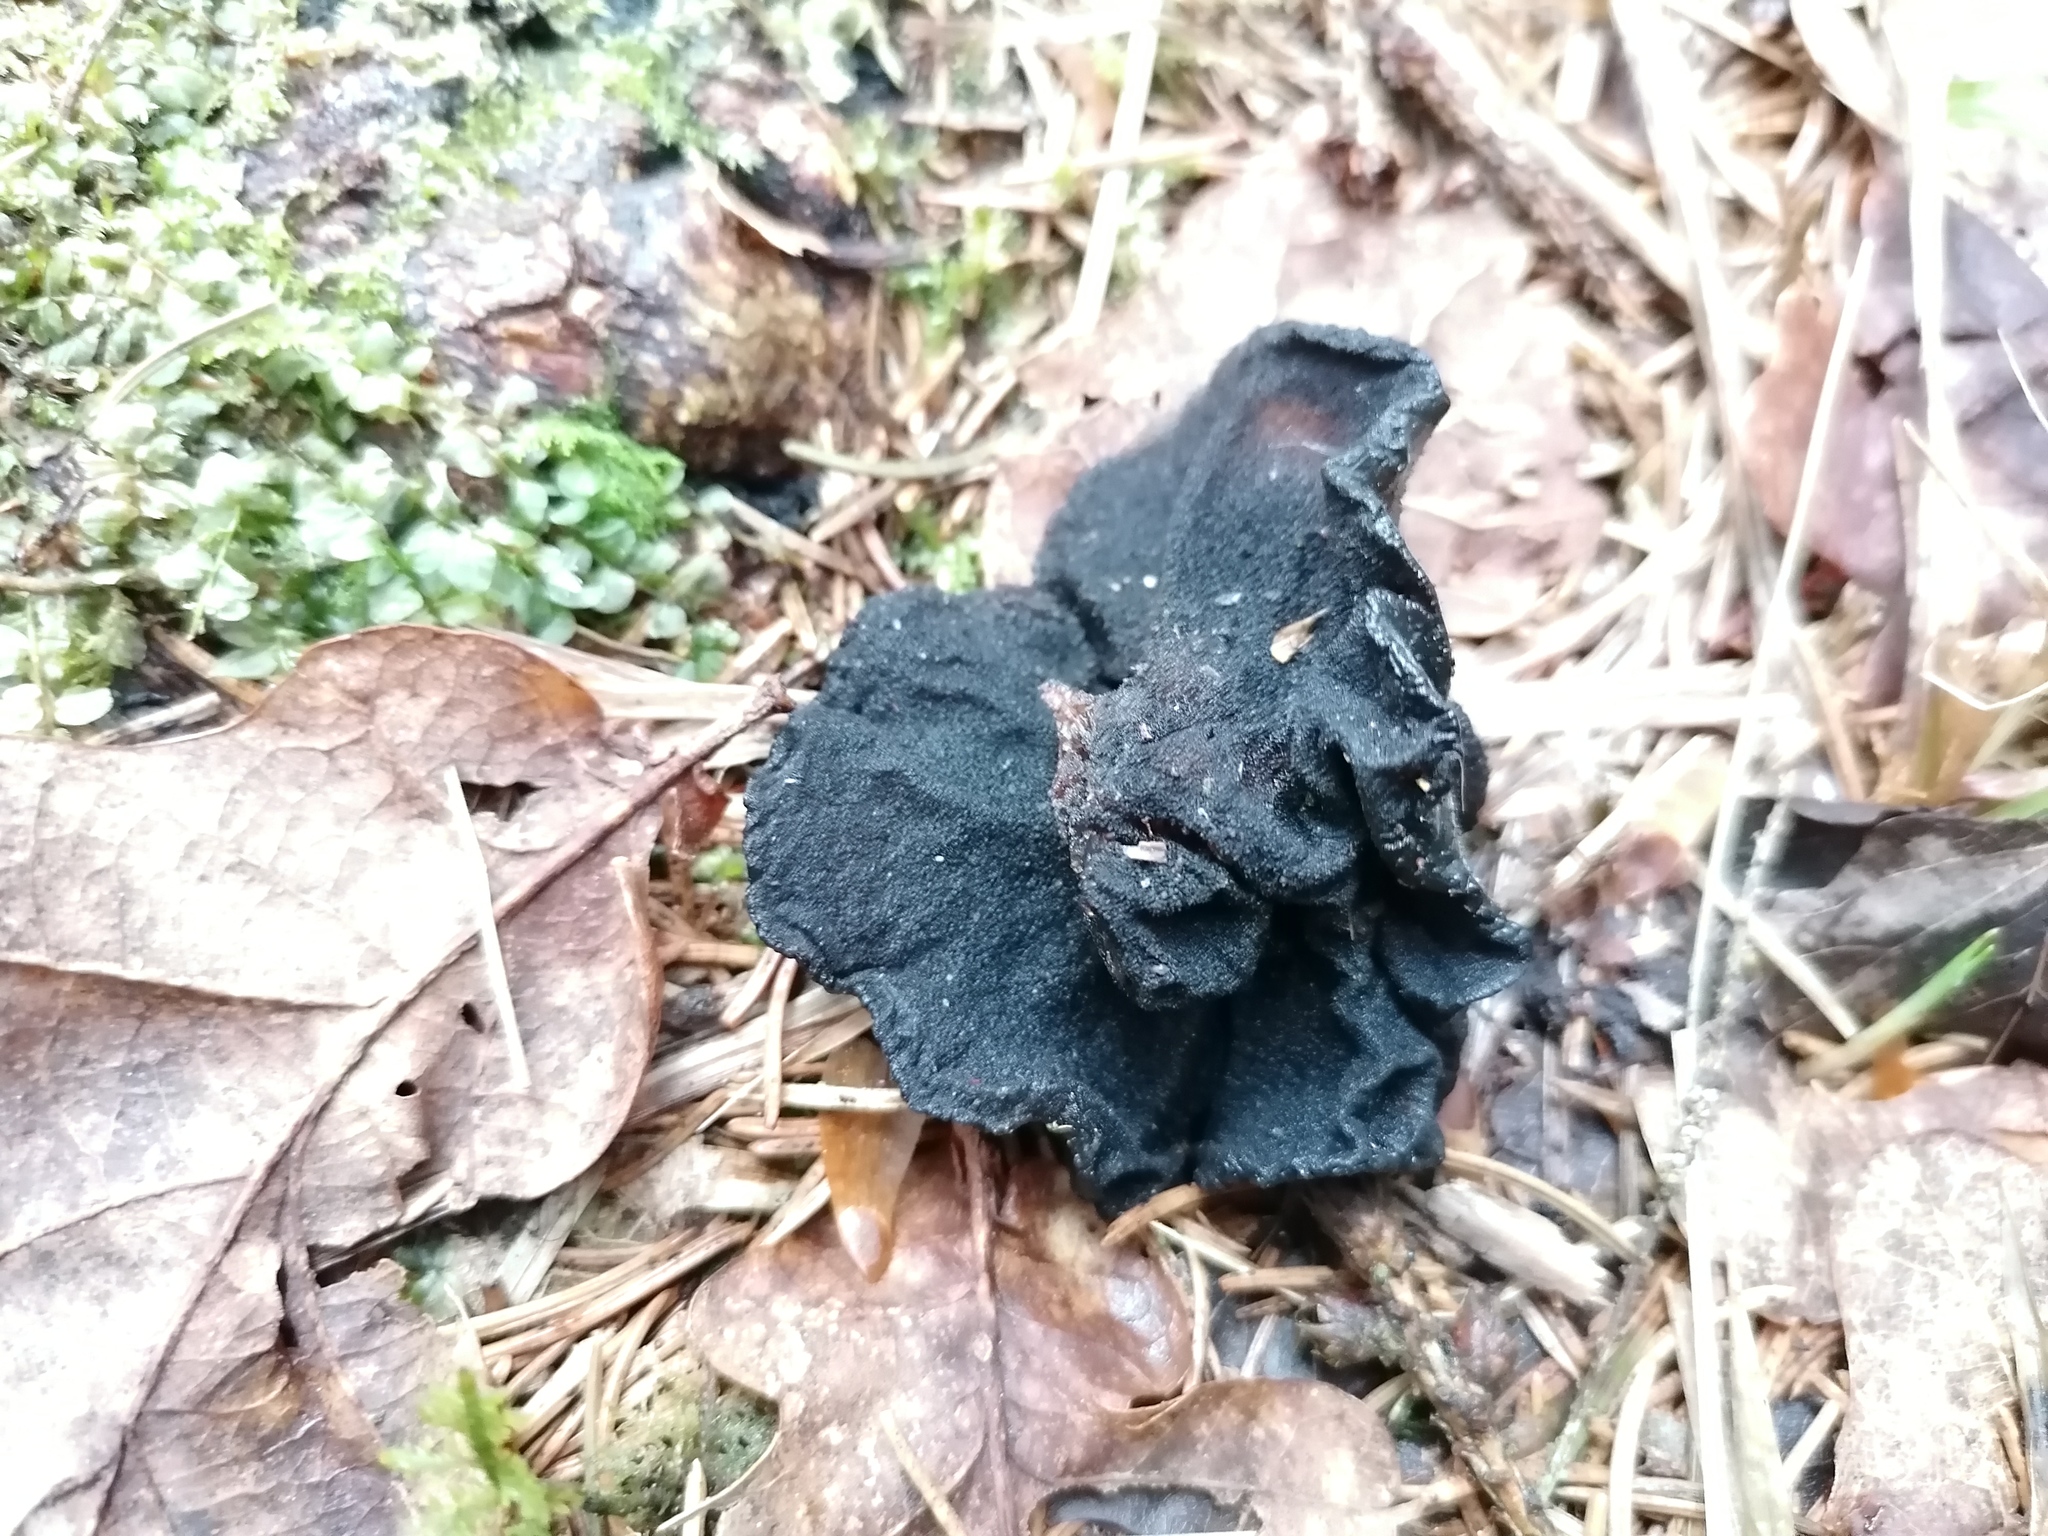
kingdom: Fungi
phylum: Basidiomycota
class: Agaricomycetes
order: Auriculariales
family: Auriculariaceae
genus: Exidia
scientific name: Exidia glandulosa
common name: Witches' butter
